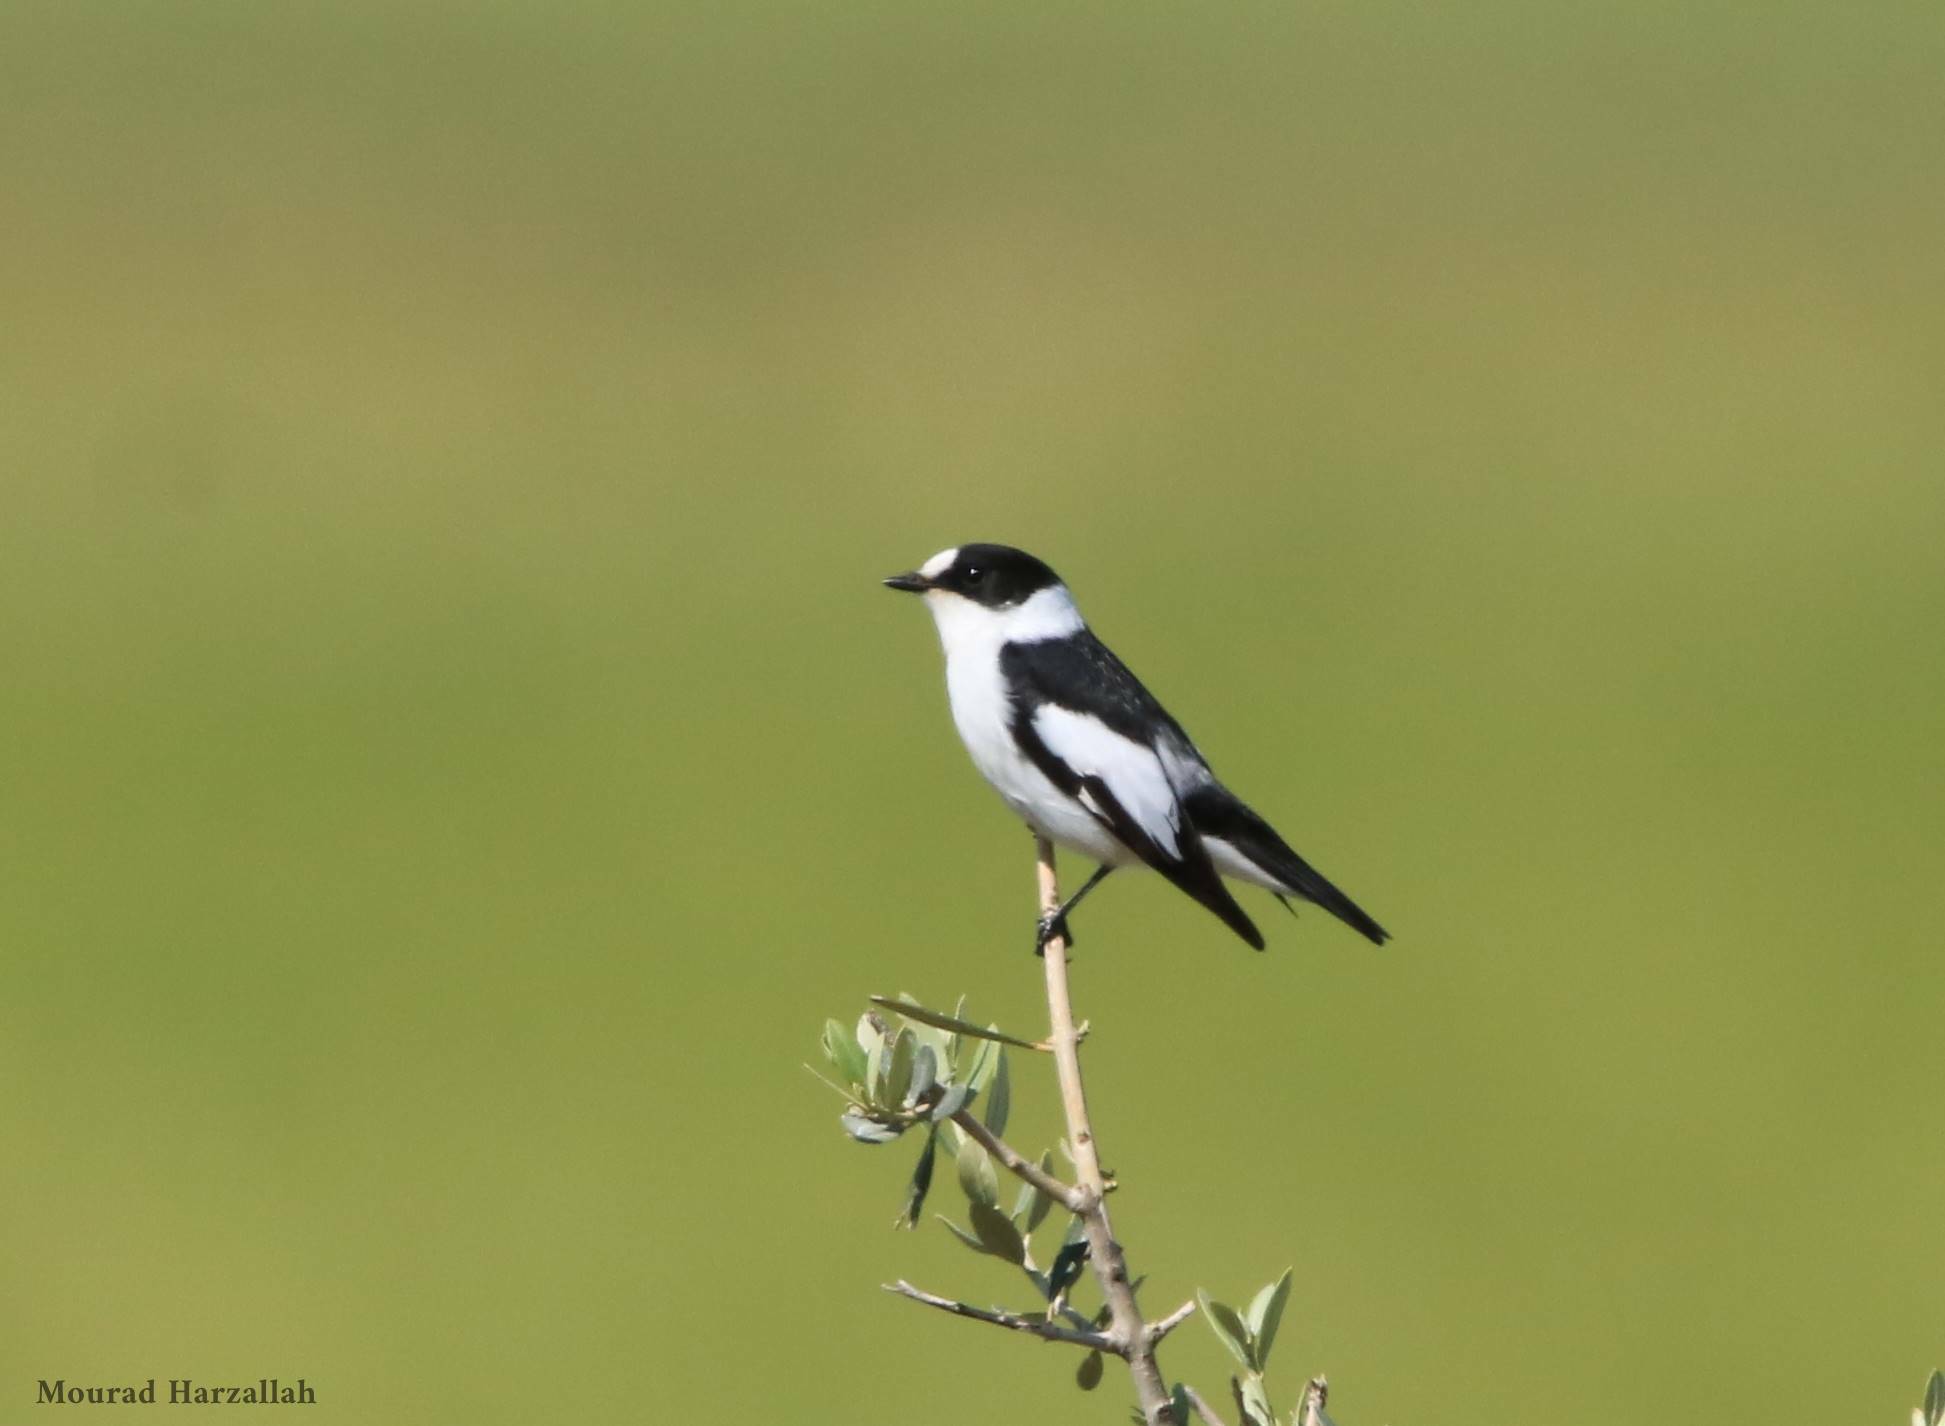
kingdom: Animalia
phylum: Chordata
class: Aves
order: Passeriformes
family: Muscicapidae
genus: Ficedula
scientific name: Ficedula albicollis
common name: Collared flycatcher
